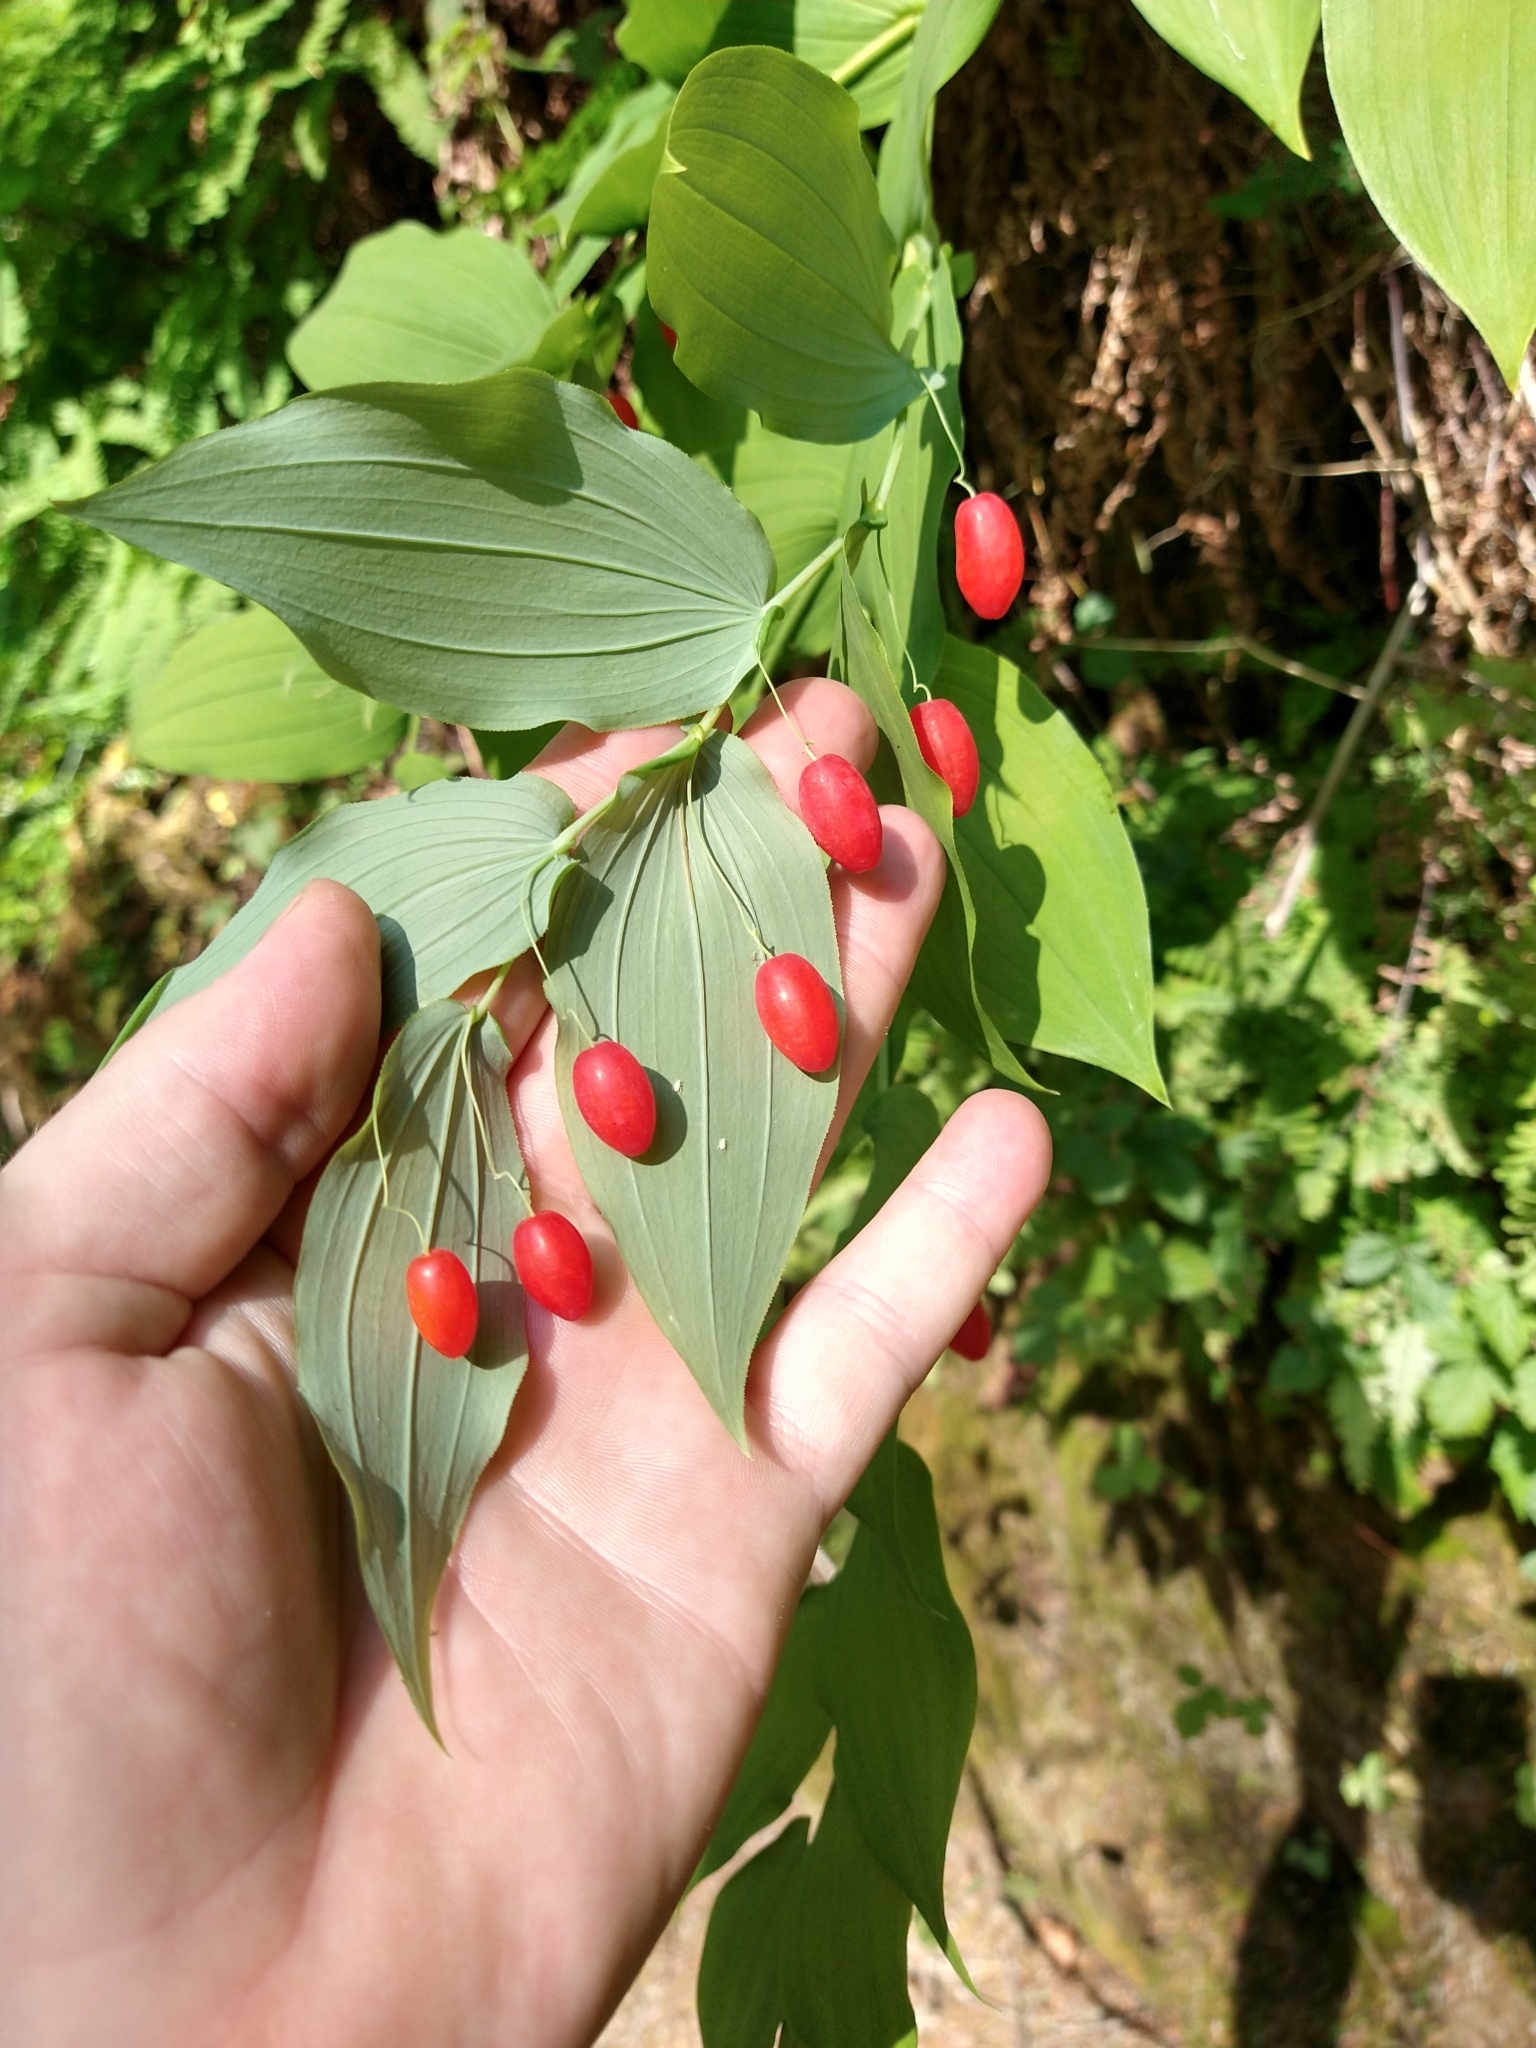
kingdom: Plantae
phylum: Tracheophyta
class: Liliopsida
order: Liliales
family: Liliaceae
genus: Streptopus
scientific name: Streptopus amplexifolius
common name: Clasp twisted stalk
